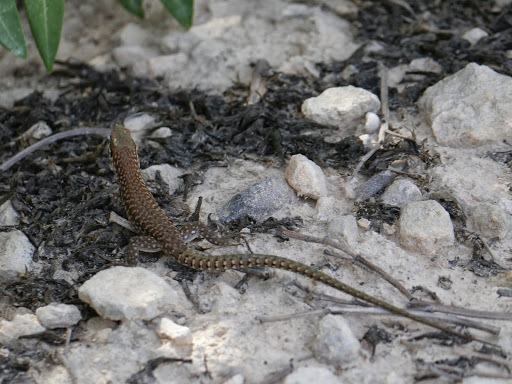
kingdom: Animalia
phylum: Chordata
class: Squamata
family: Lacertidae
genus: Podarcis
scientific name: Podarcis filfolensis
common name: Maltese wall lizard
